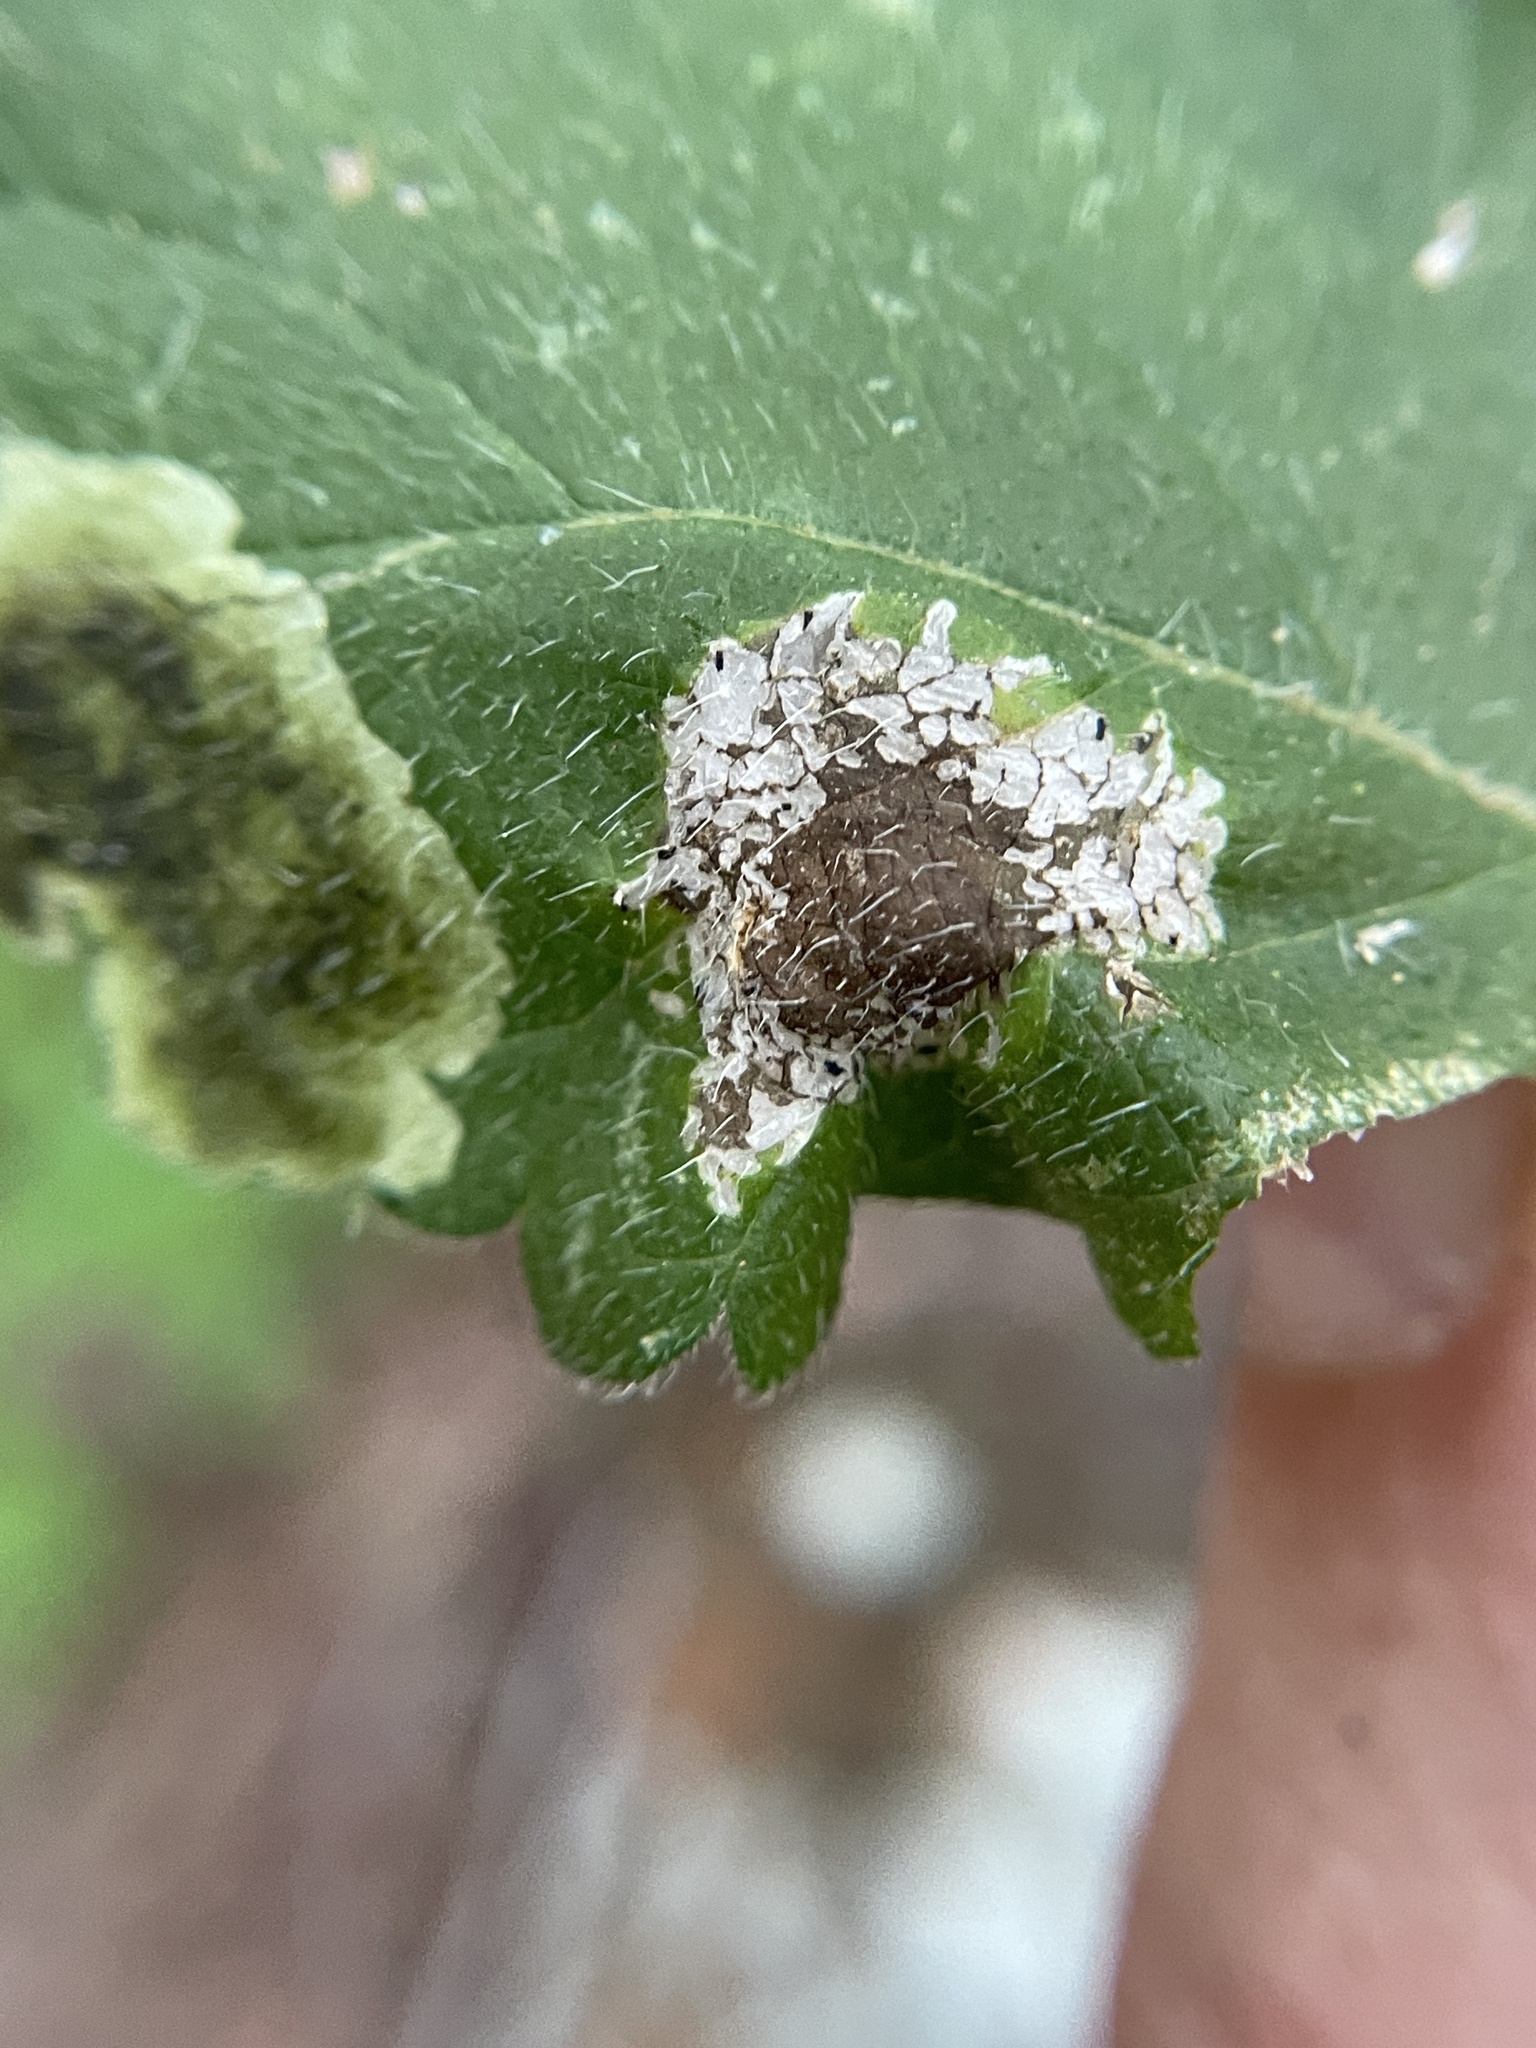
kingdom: Animalia
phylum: Arthropoda
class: Insecta
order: Lepidoptera
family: Gracillariidae
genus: Cremastobombycia
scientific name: Cremastobombycia lantanella
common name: Moth
